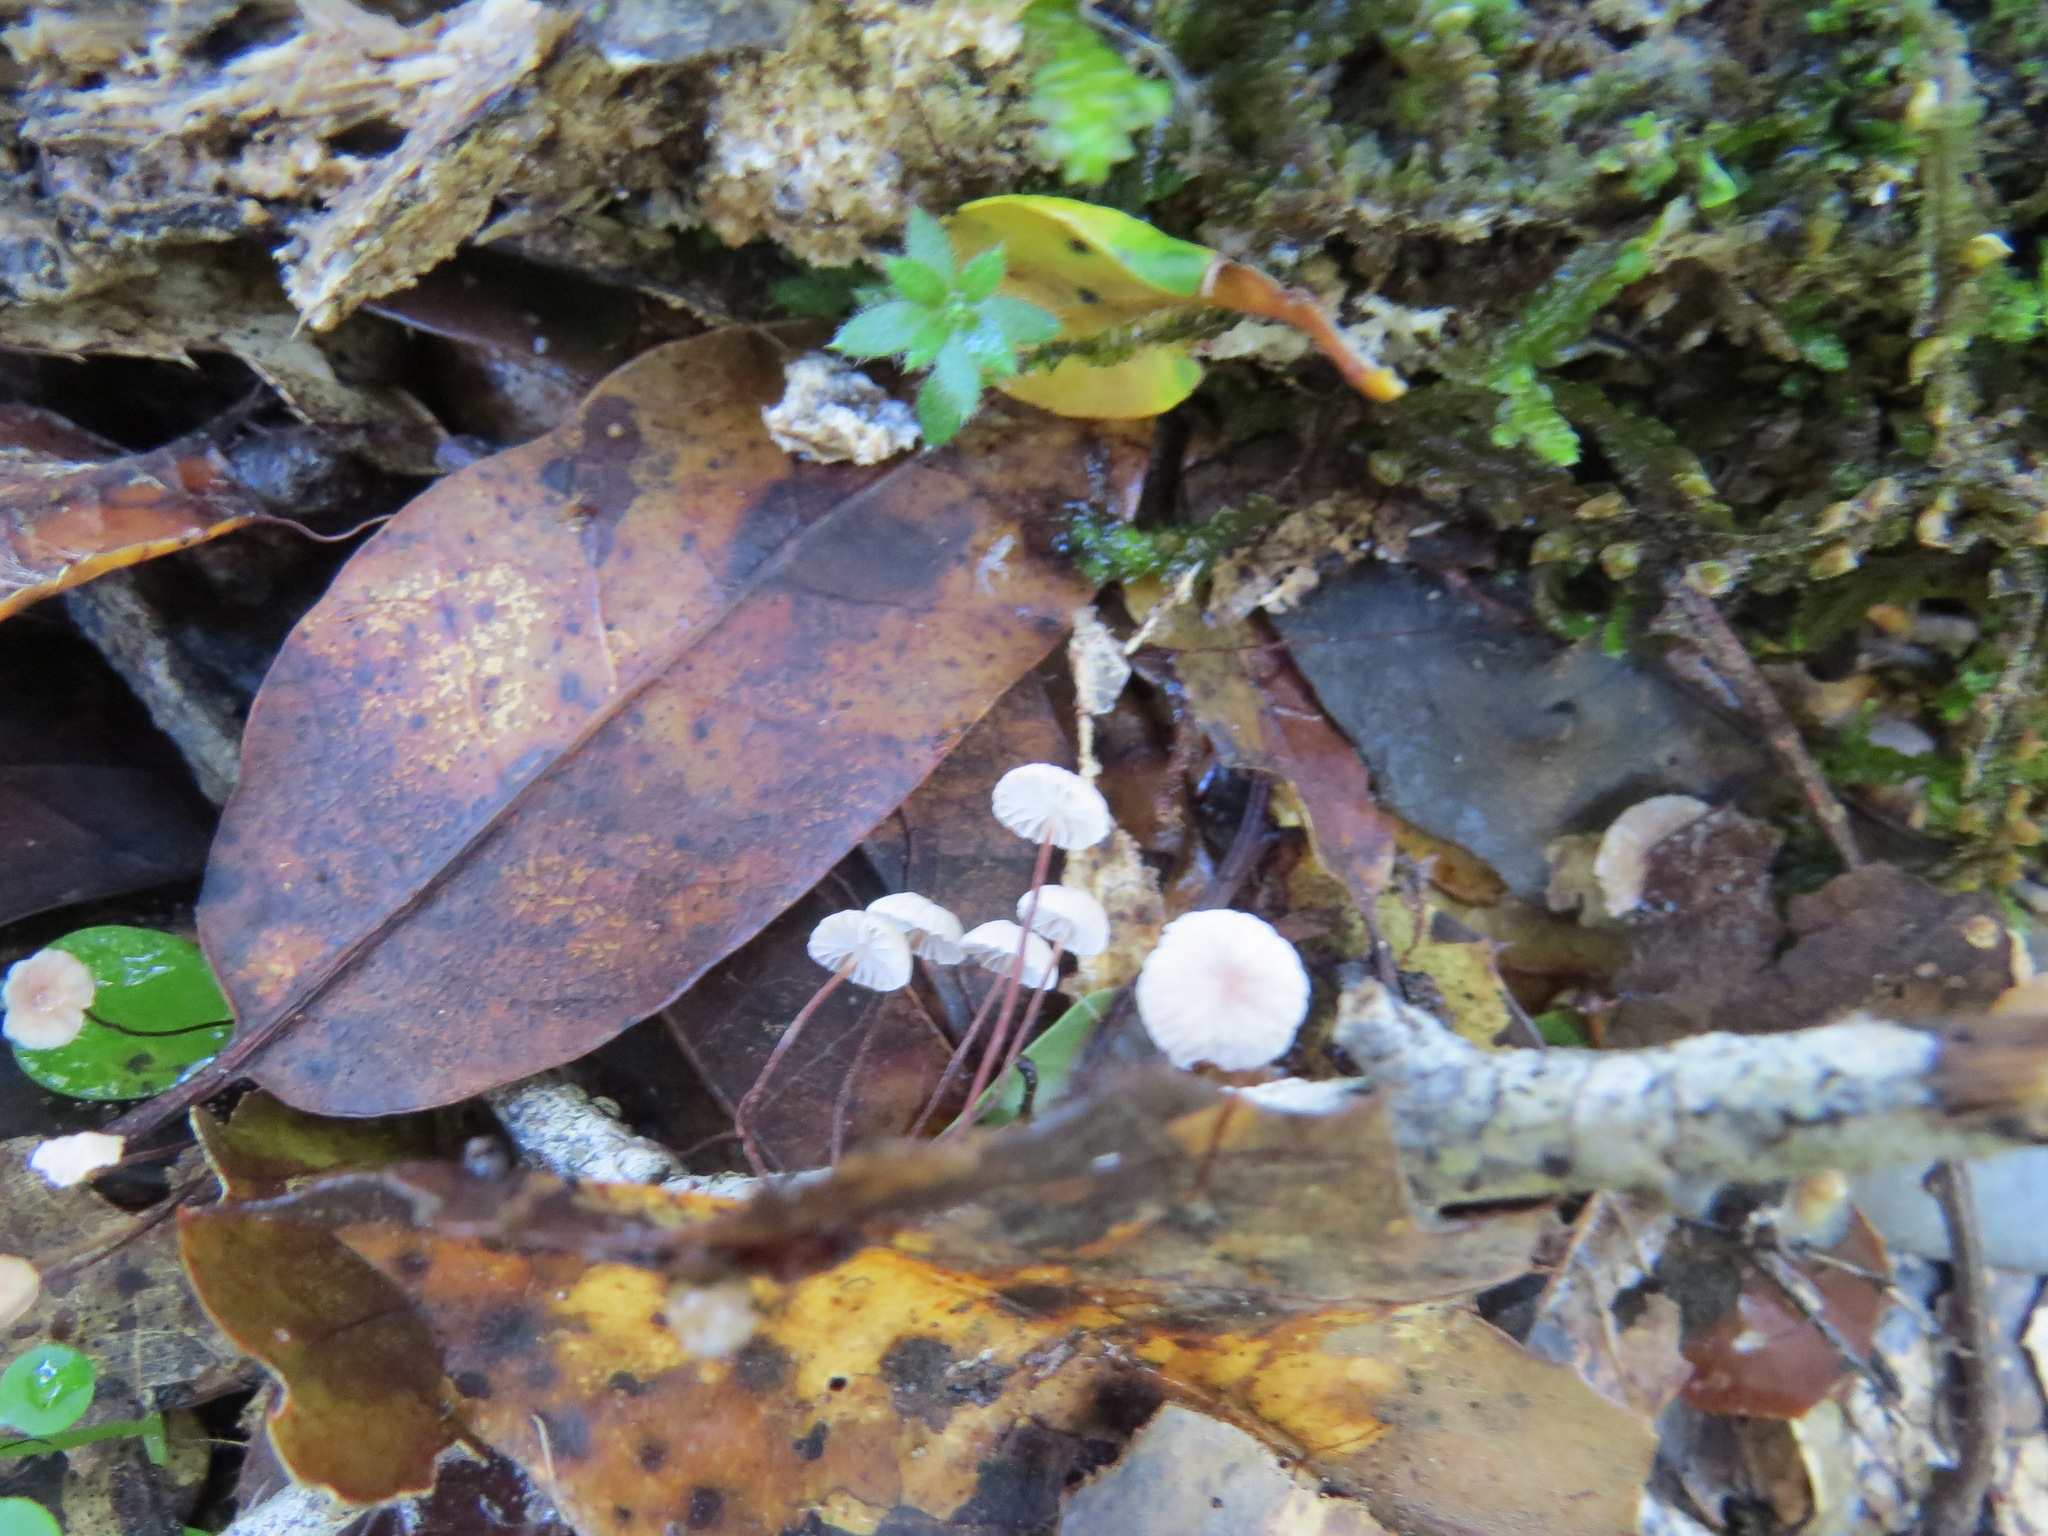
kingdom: Fungi
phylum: Basidiomycota
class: Agaricomycetes
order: Agaricales
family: Omphalotaceae
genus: Collybiopsis
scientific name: Collybiopsis quercophila
